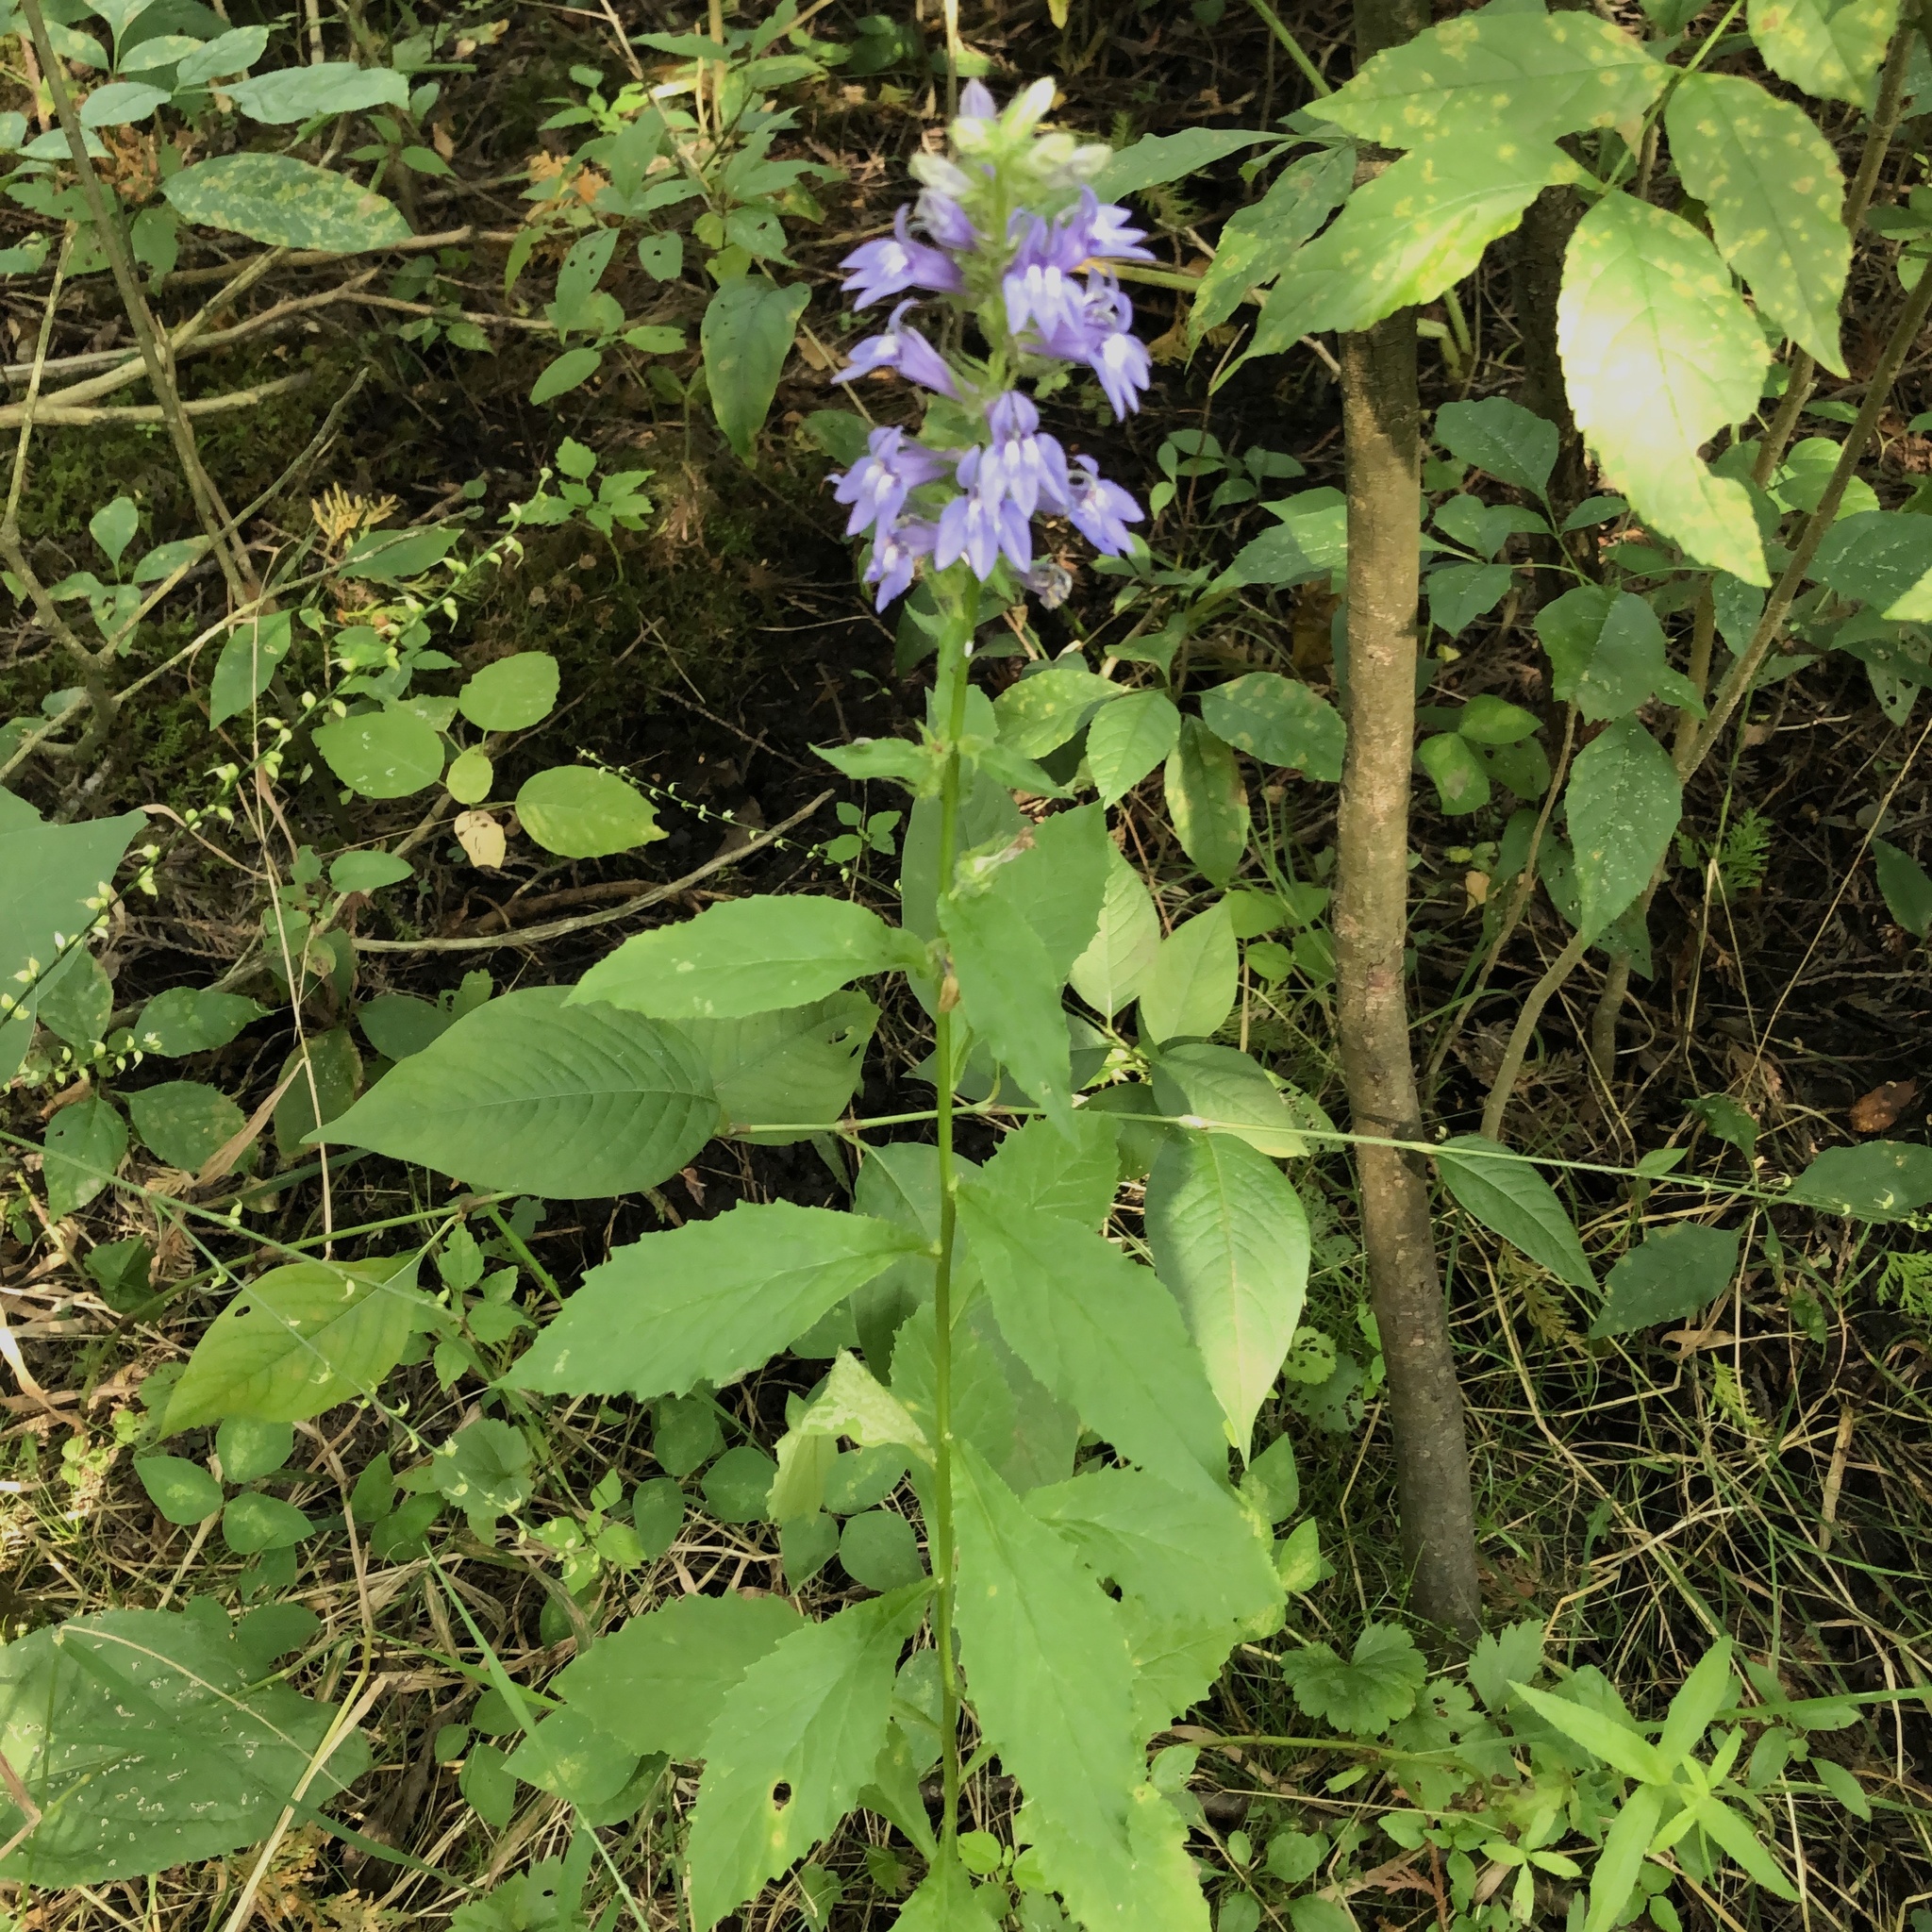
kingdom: Plantae
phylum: Tracheophyta
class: Magnoliopsida
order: Asterales
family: Campanulaceae
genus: Lobelia
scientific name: Lobelia siphilitica
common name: Great lobelia
